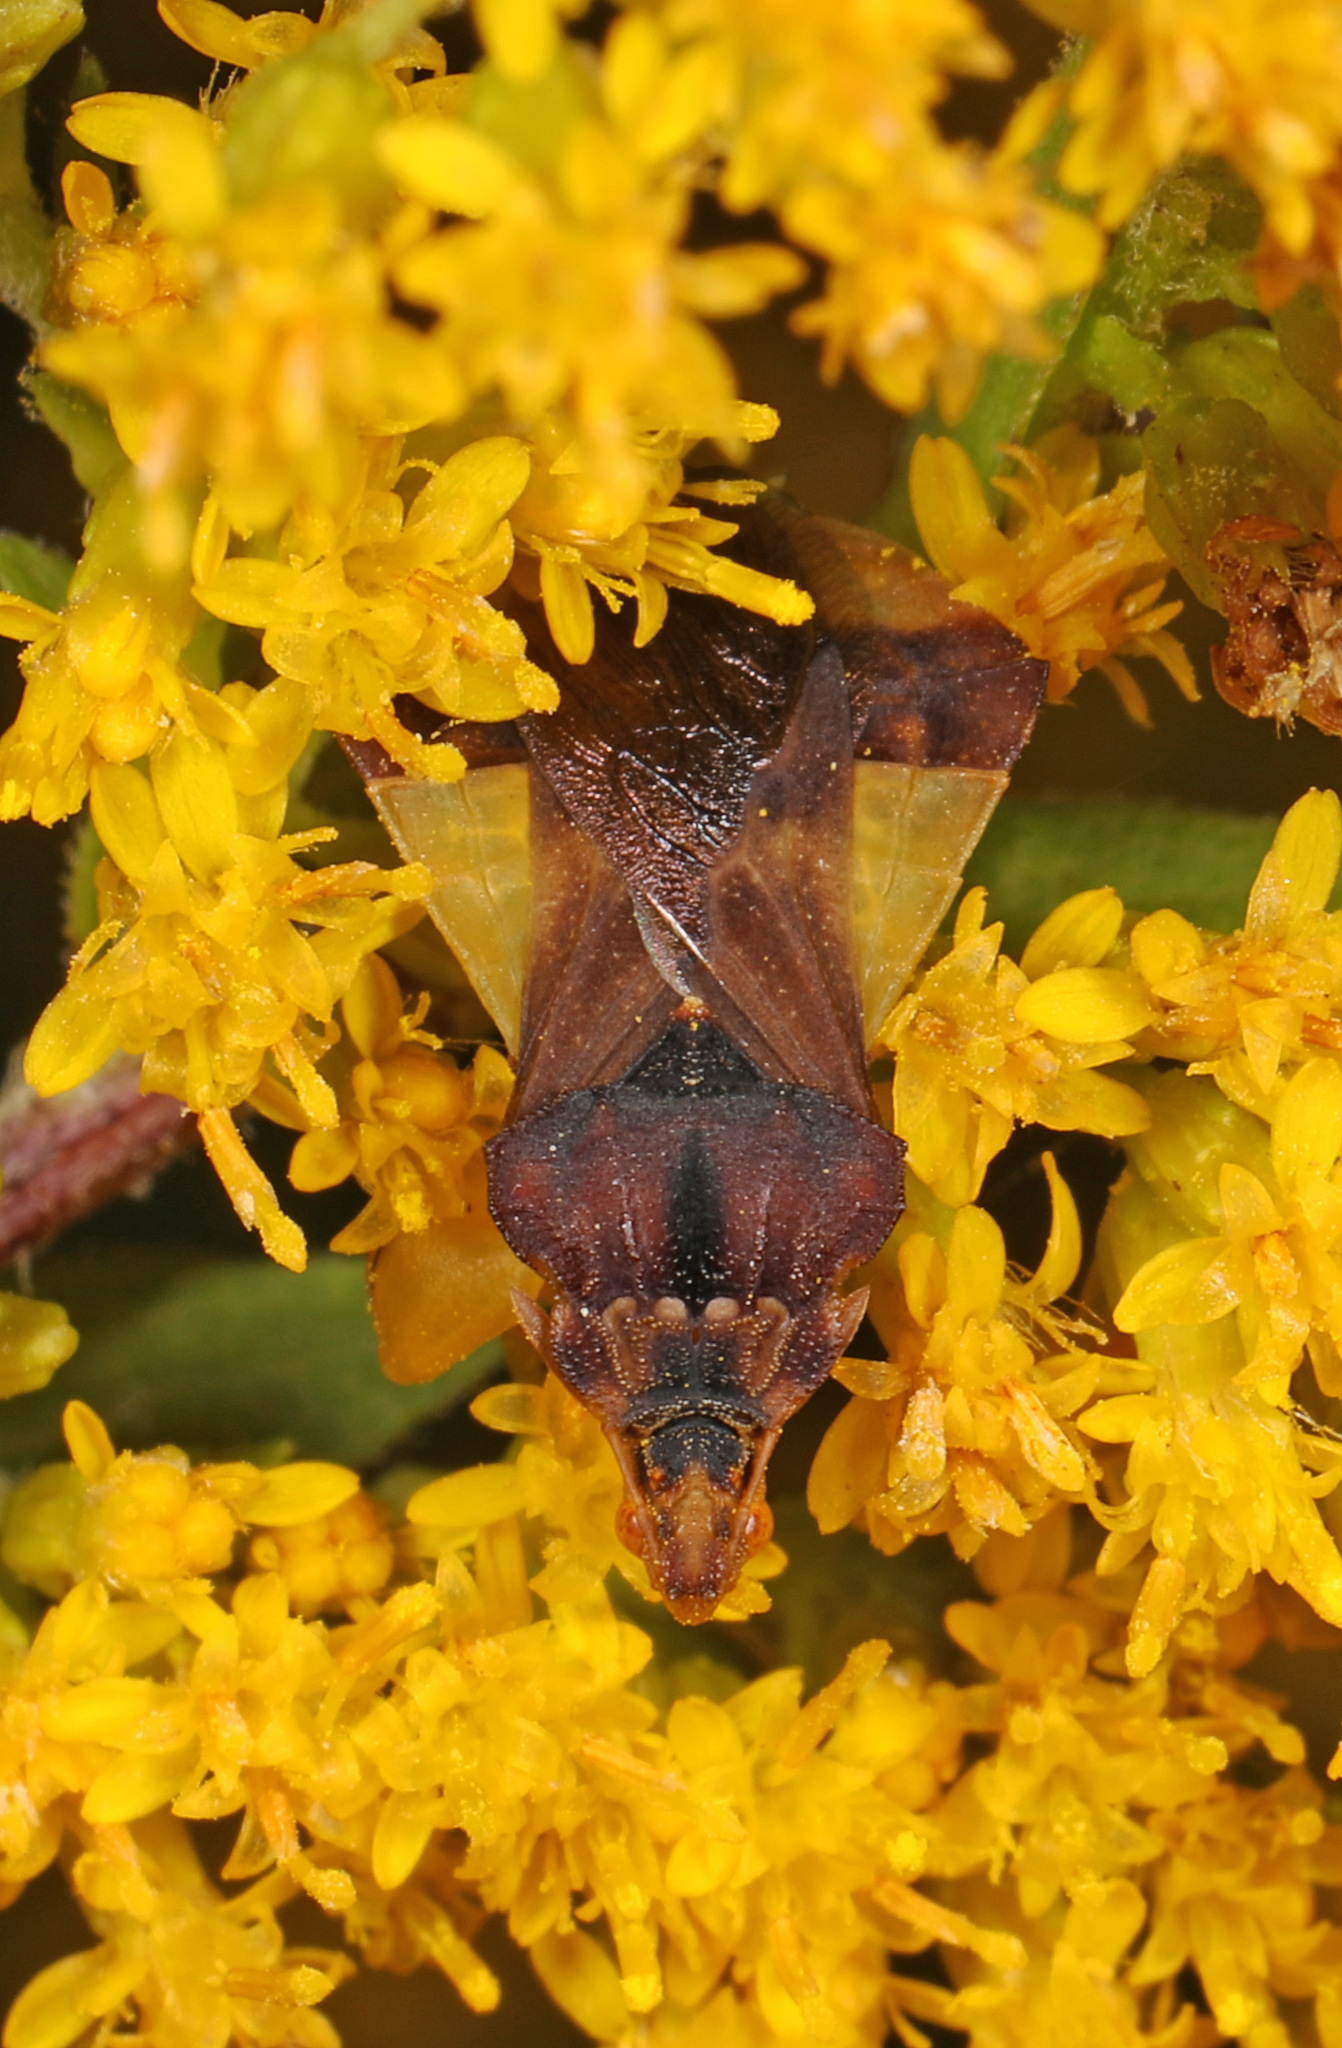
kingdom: Animalia
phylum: Arthropoda
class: Insecta
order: Hemiptera
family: Reduviidae
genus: Phymata
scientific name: Phymata pennsylvanica
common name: Pennsylvania ambush bug
